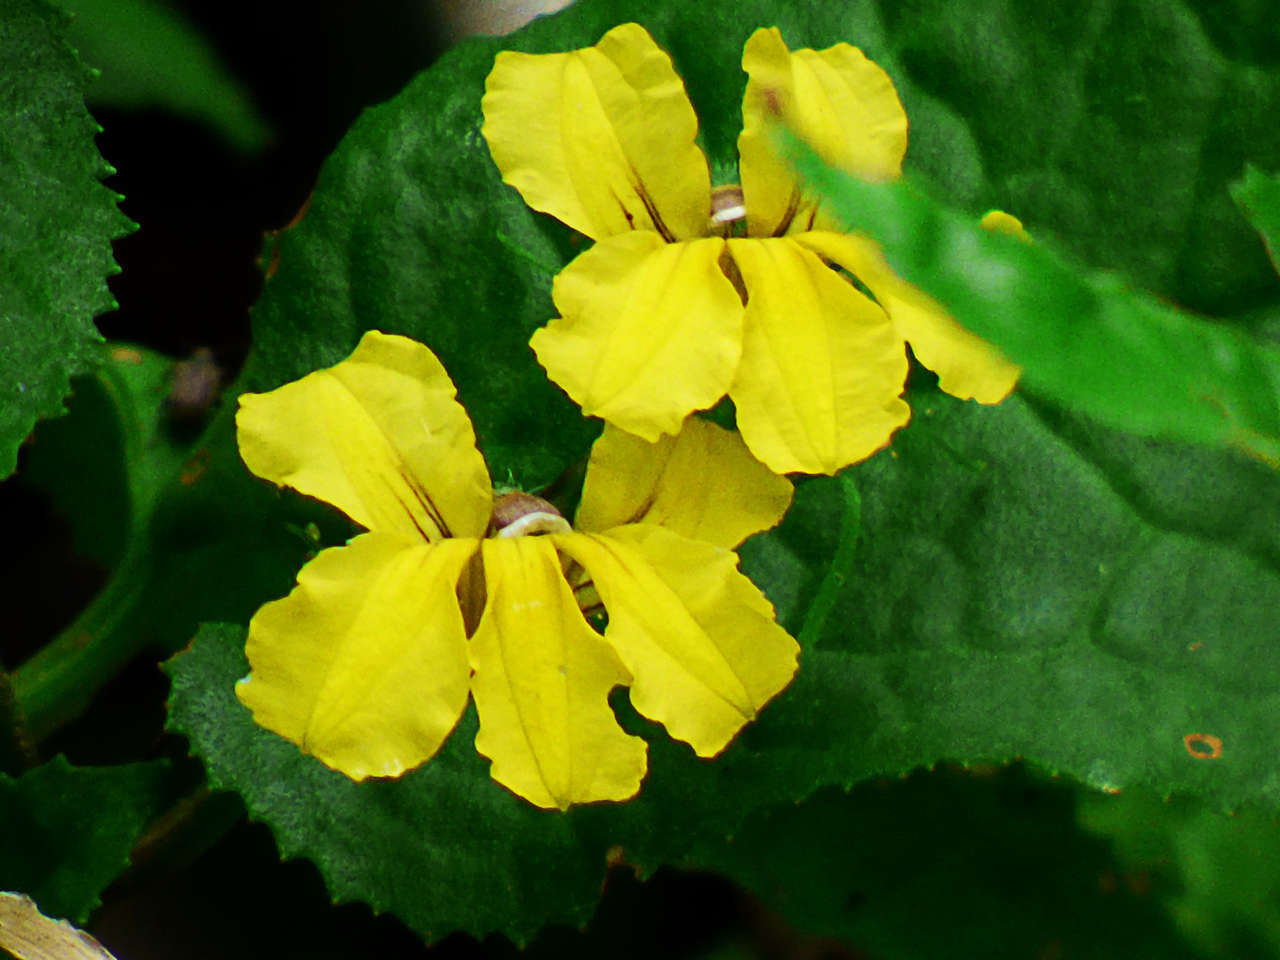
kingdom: Plantae
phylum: Tracheophyta
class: Magnoliopsida
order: Asterales
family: Goodeniaceae
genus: Goodenia
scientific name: Goodenia ovata
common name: Hop goodenia
